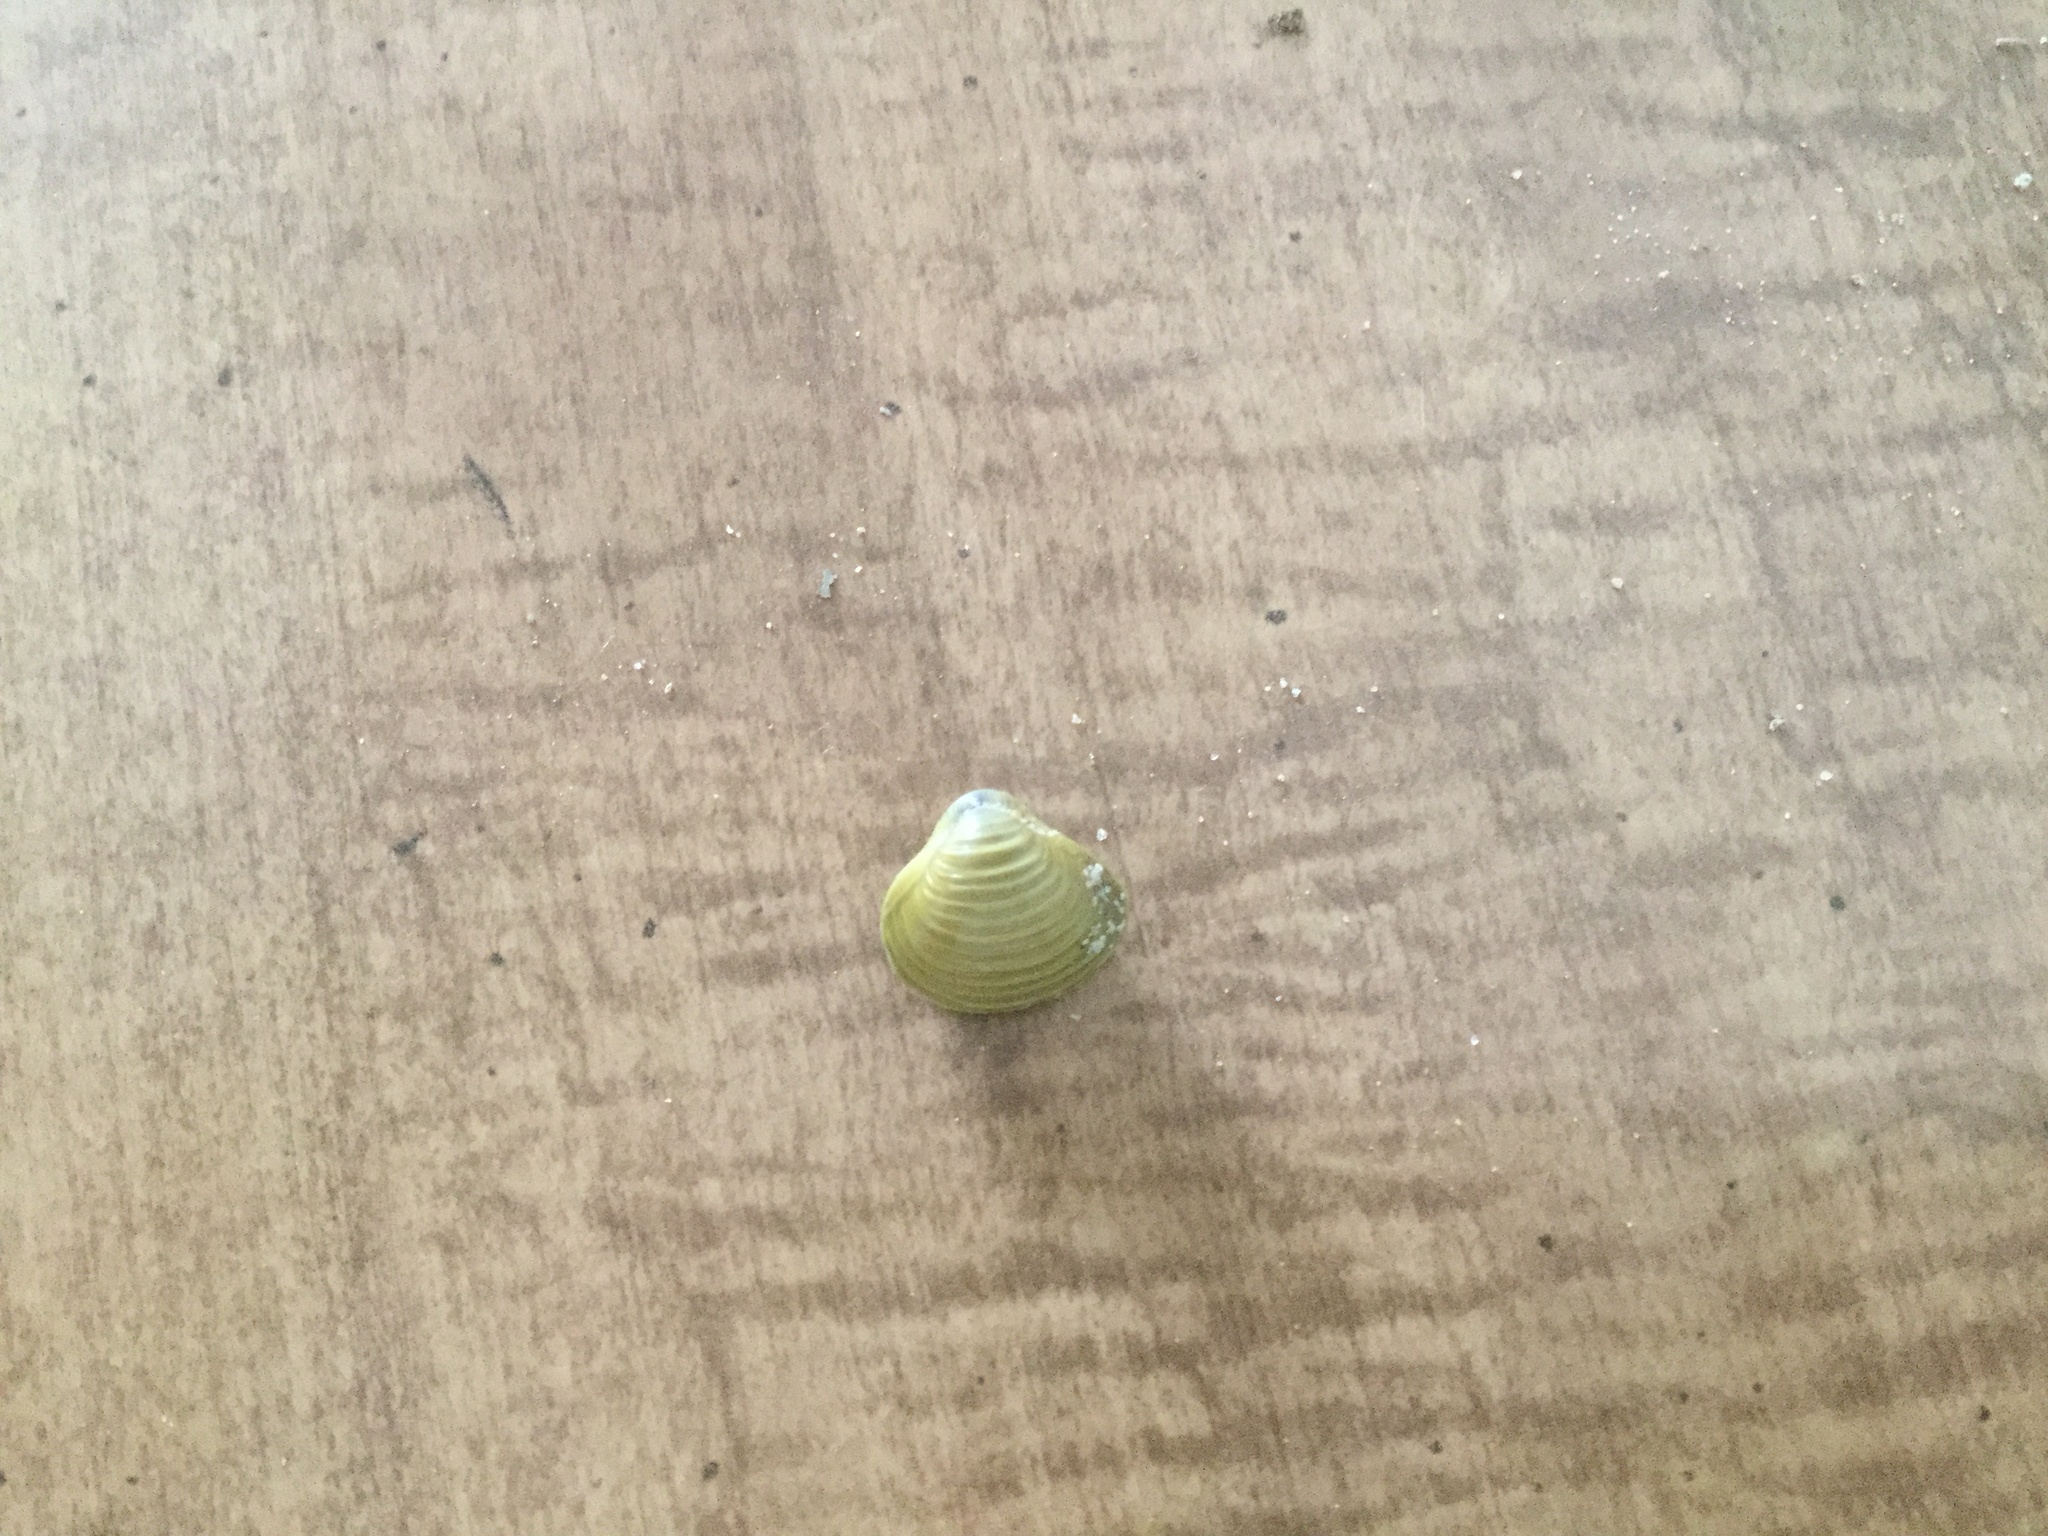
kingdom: Animalia
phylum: Mollusca
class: Bivalvia
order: Venerida
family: Cyrenidae
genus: Corbicula
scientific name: Corbicula fluminea
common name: Asian clam
